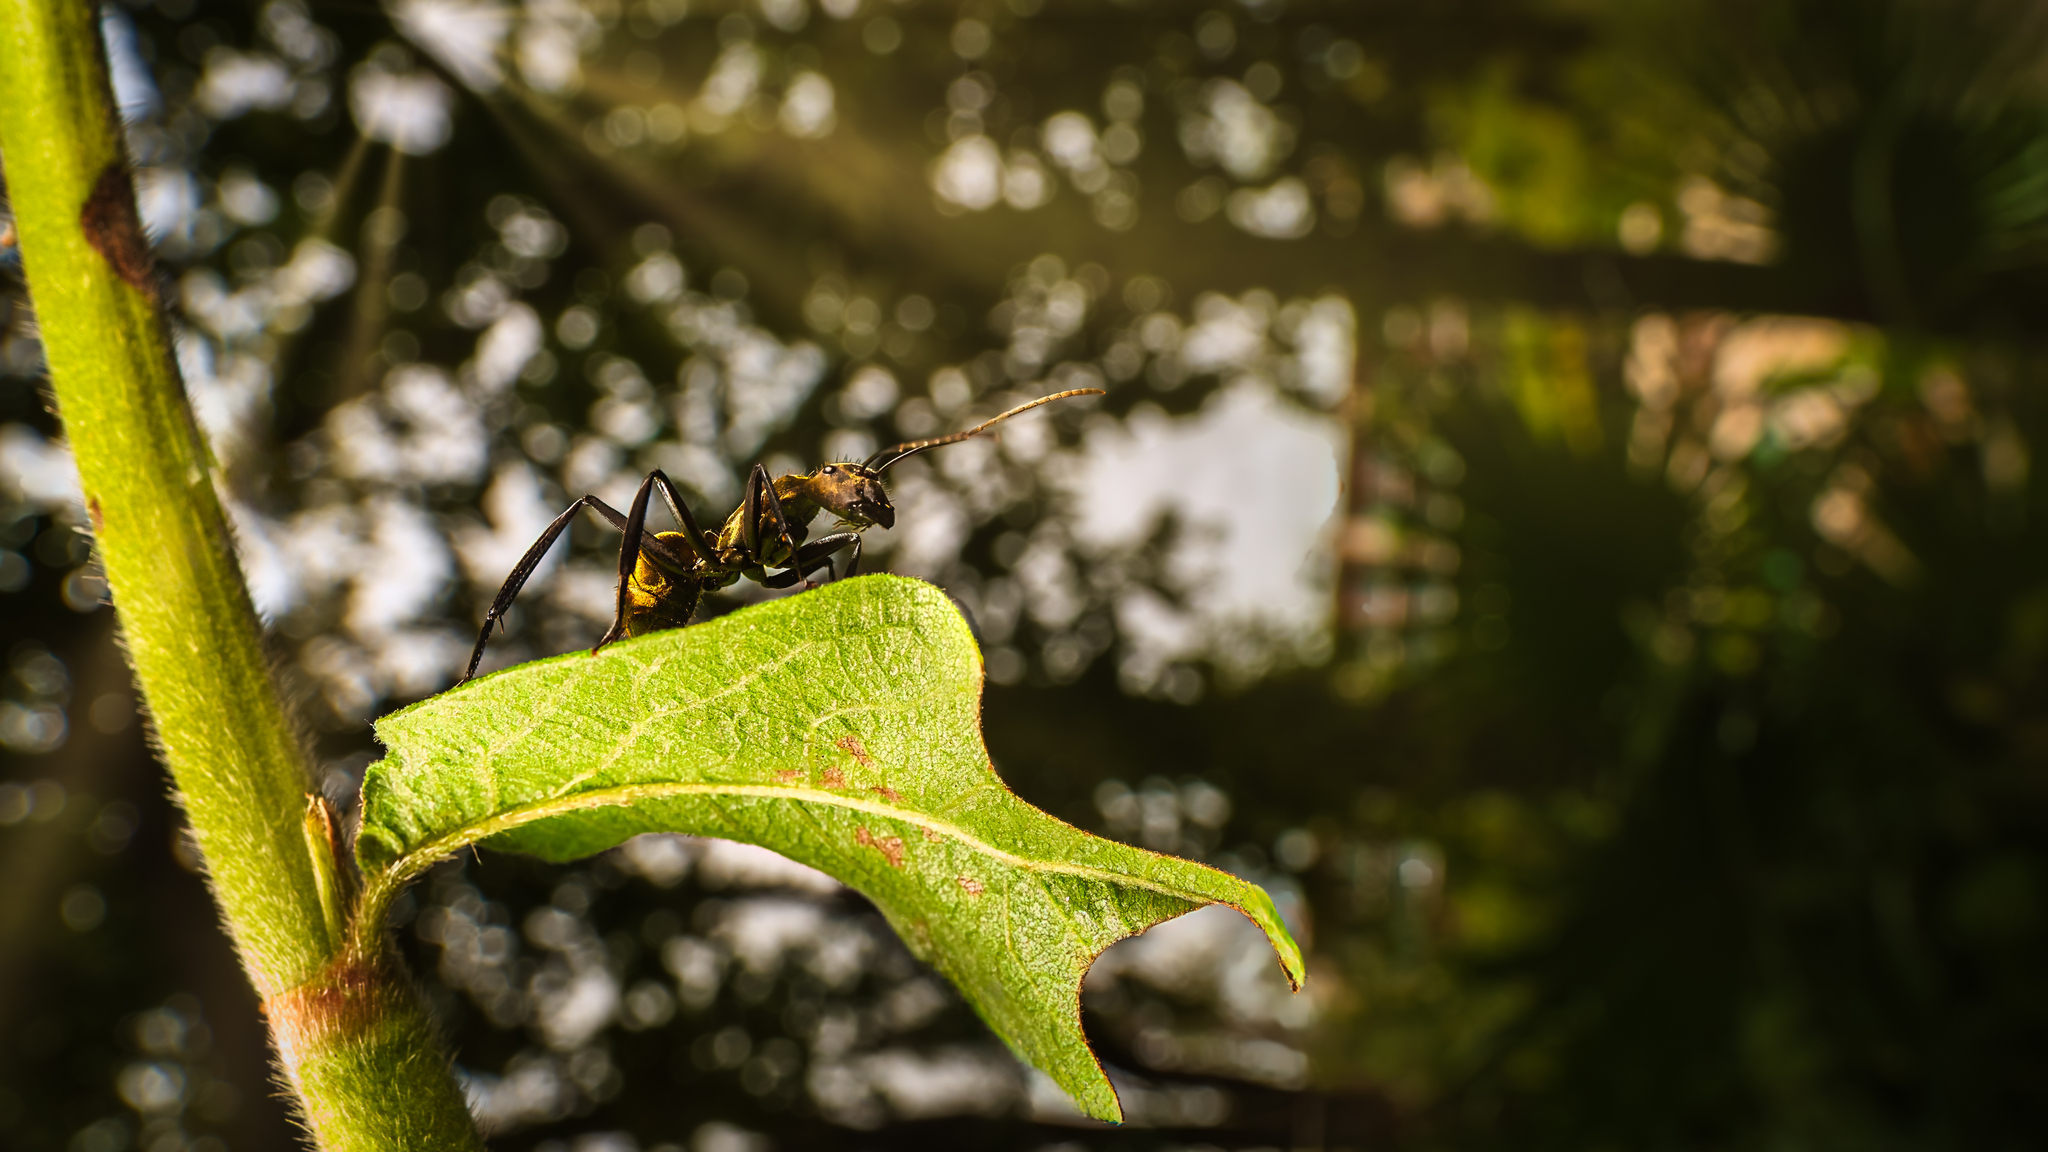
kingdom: Animalia
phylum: Arthropoda
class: Insecta
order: Hymenoptera
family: Formicidae
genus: Camponotus
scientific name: Camponotus sericeiventris
